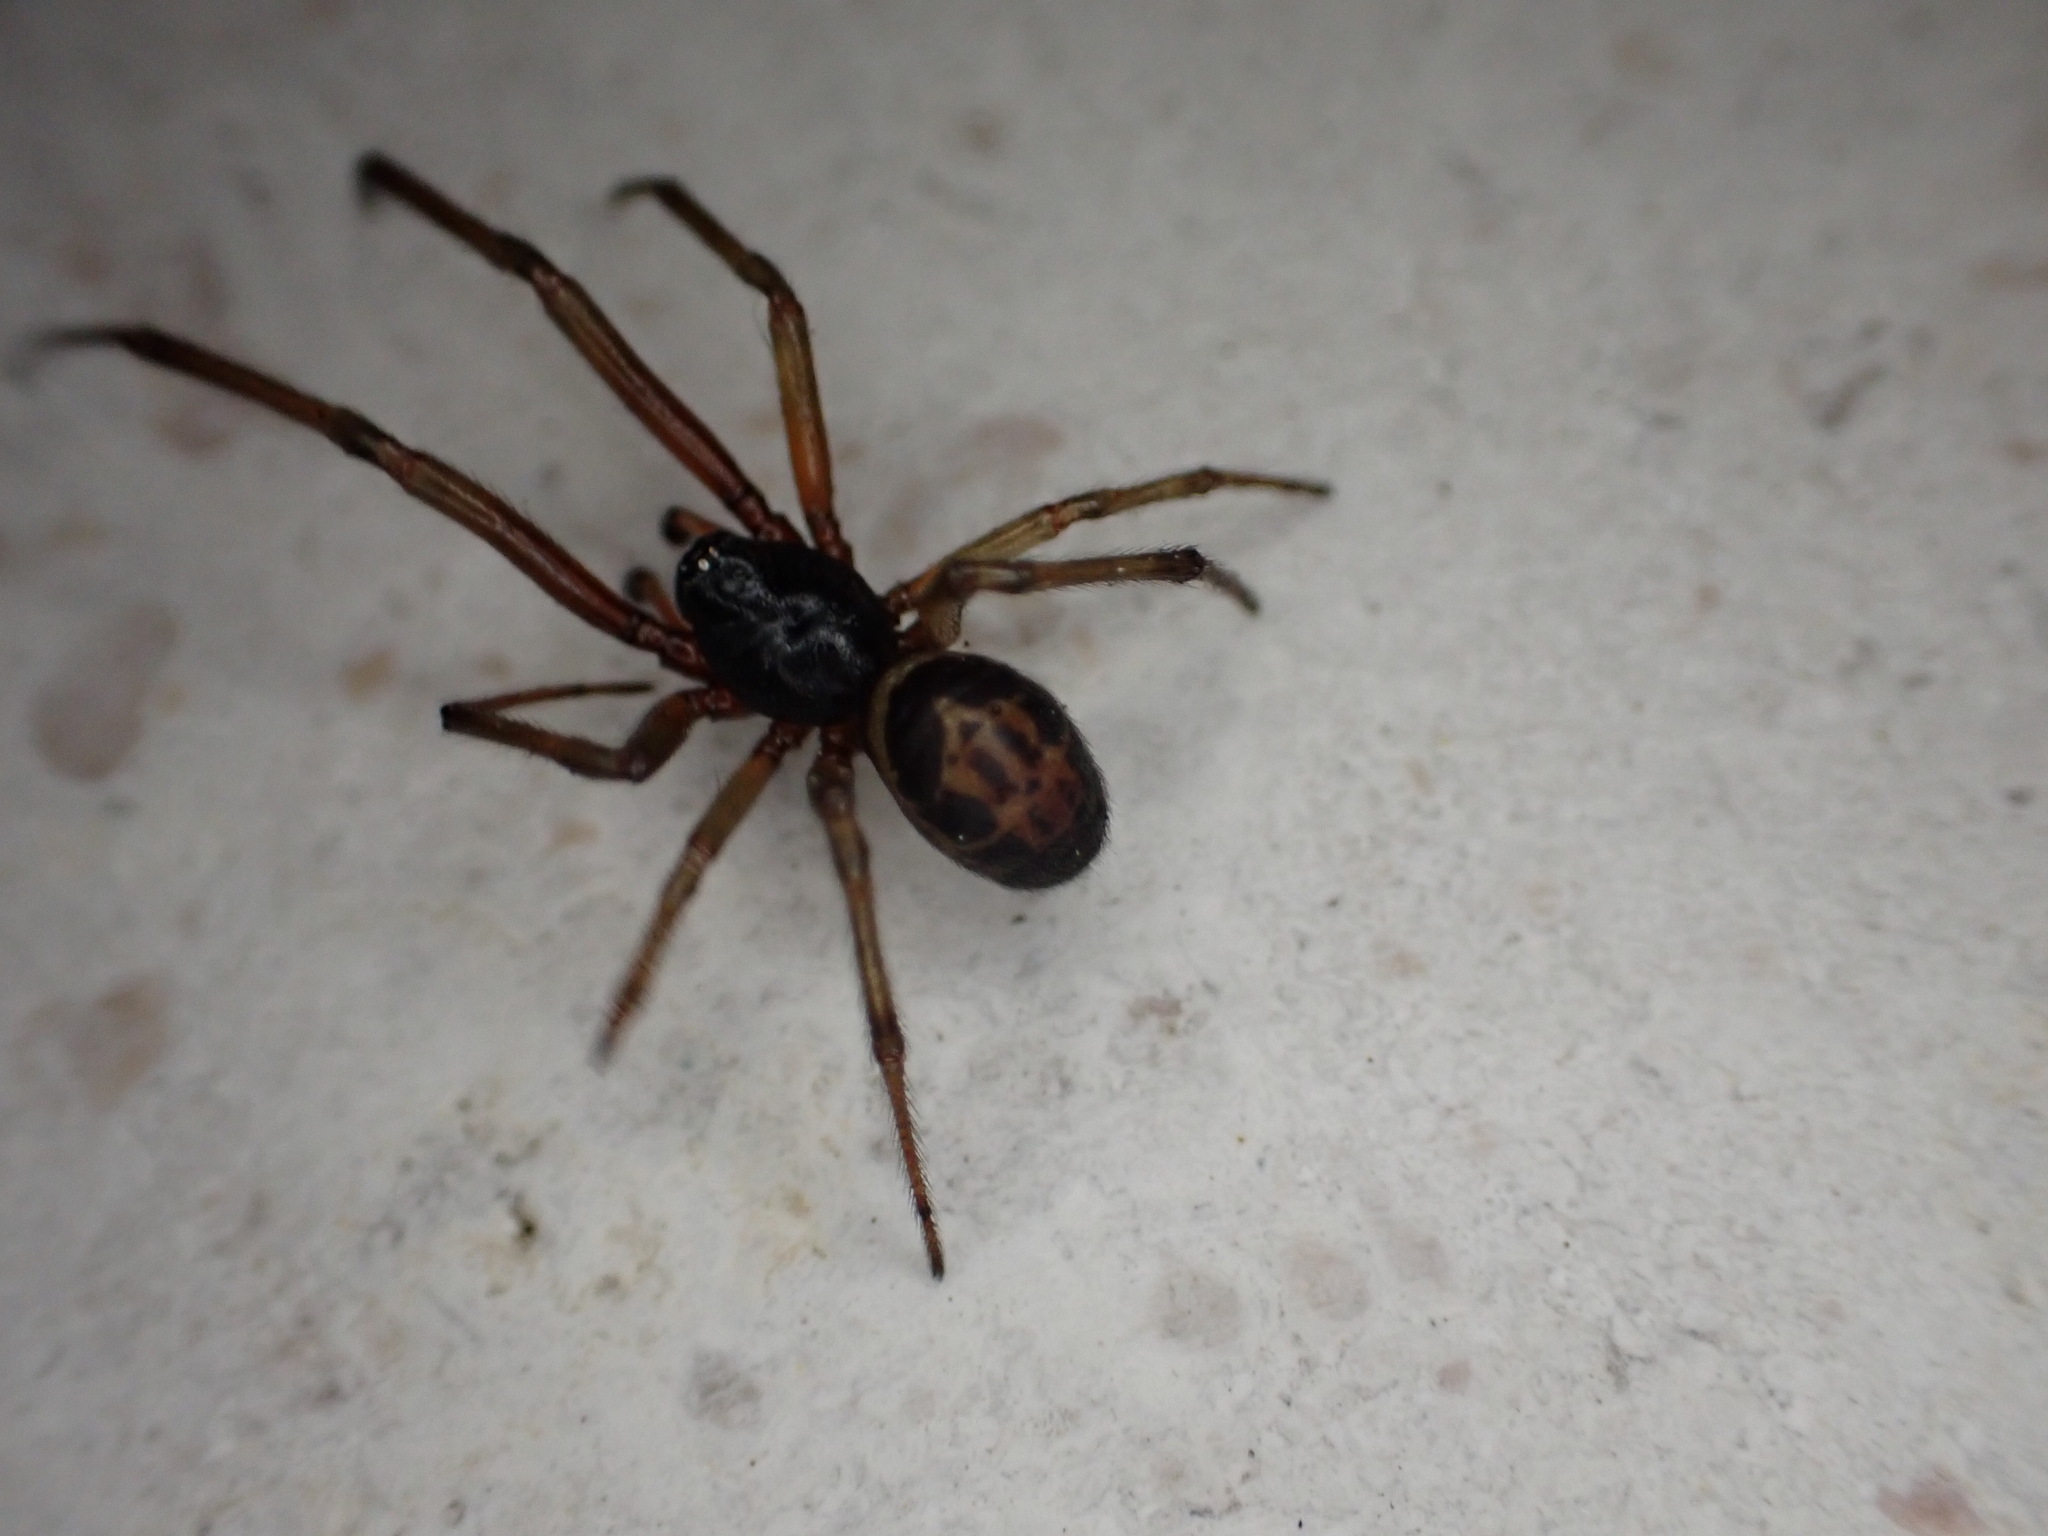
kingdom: Animalia
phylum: Arthropoda
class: Arachnida
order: Araneae
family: Theridiidae
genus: Steatoda
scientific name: Steatoda nobilis
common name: Cobweb weaver
